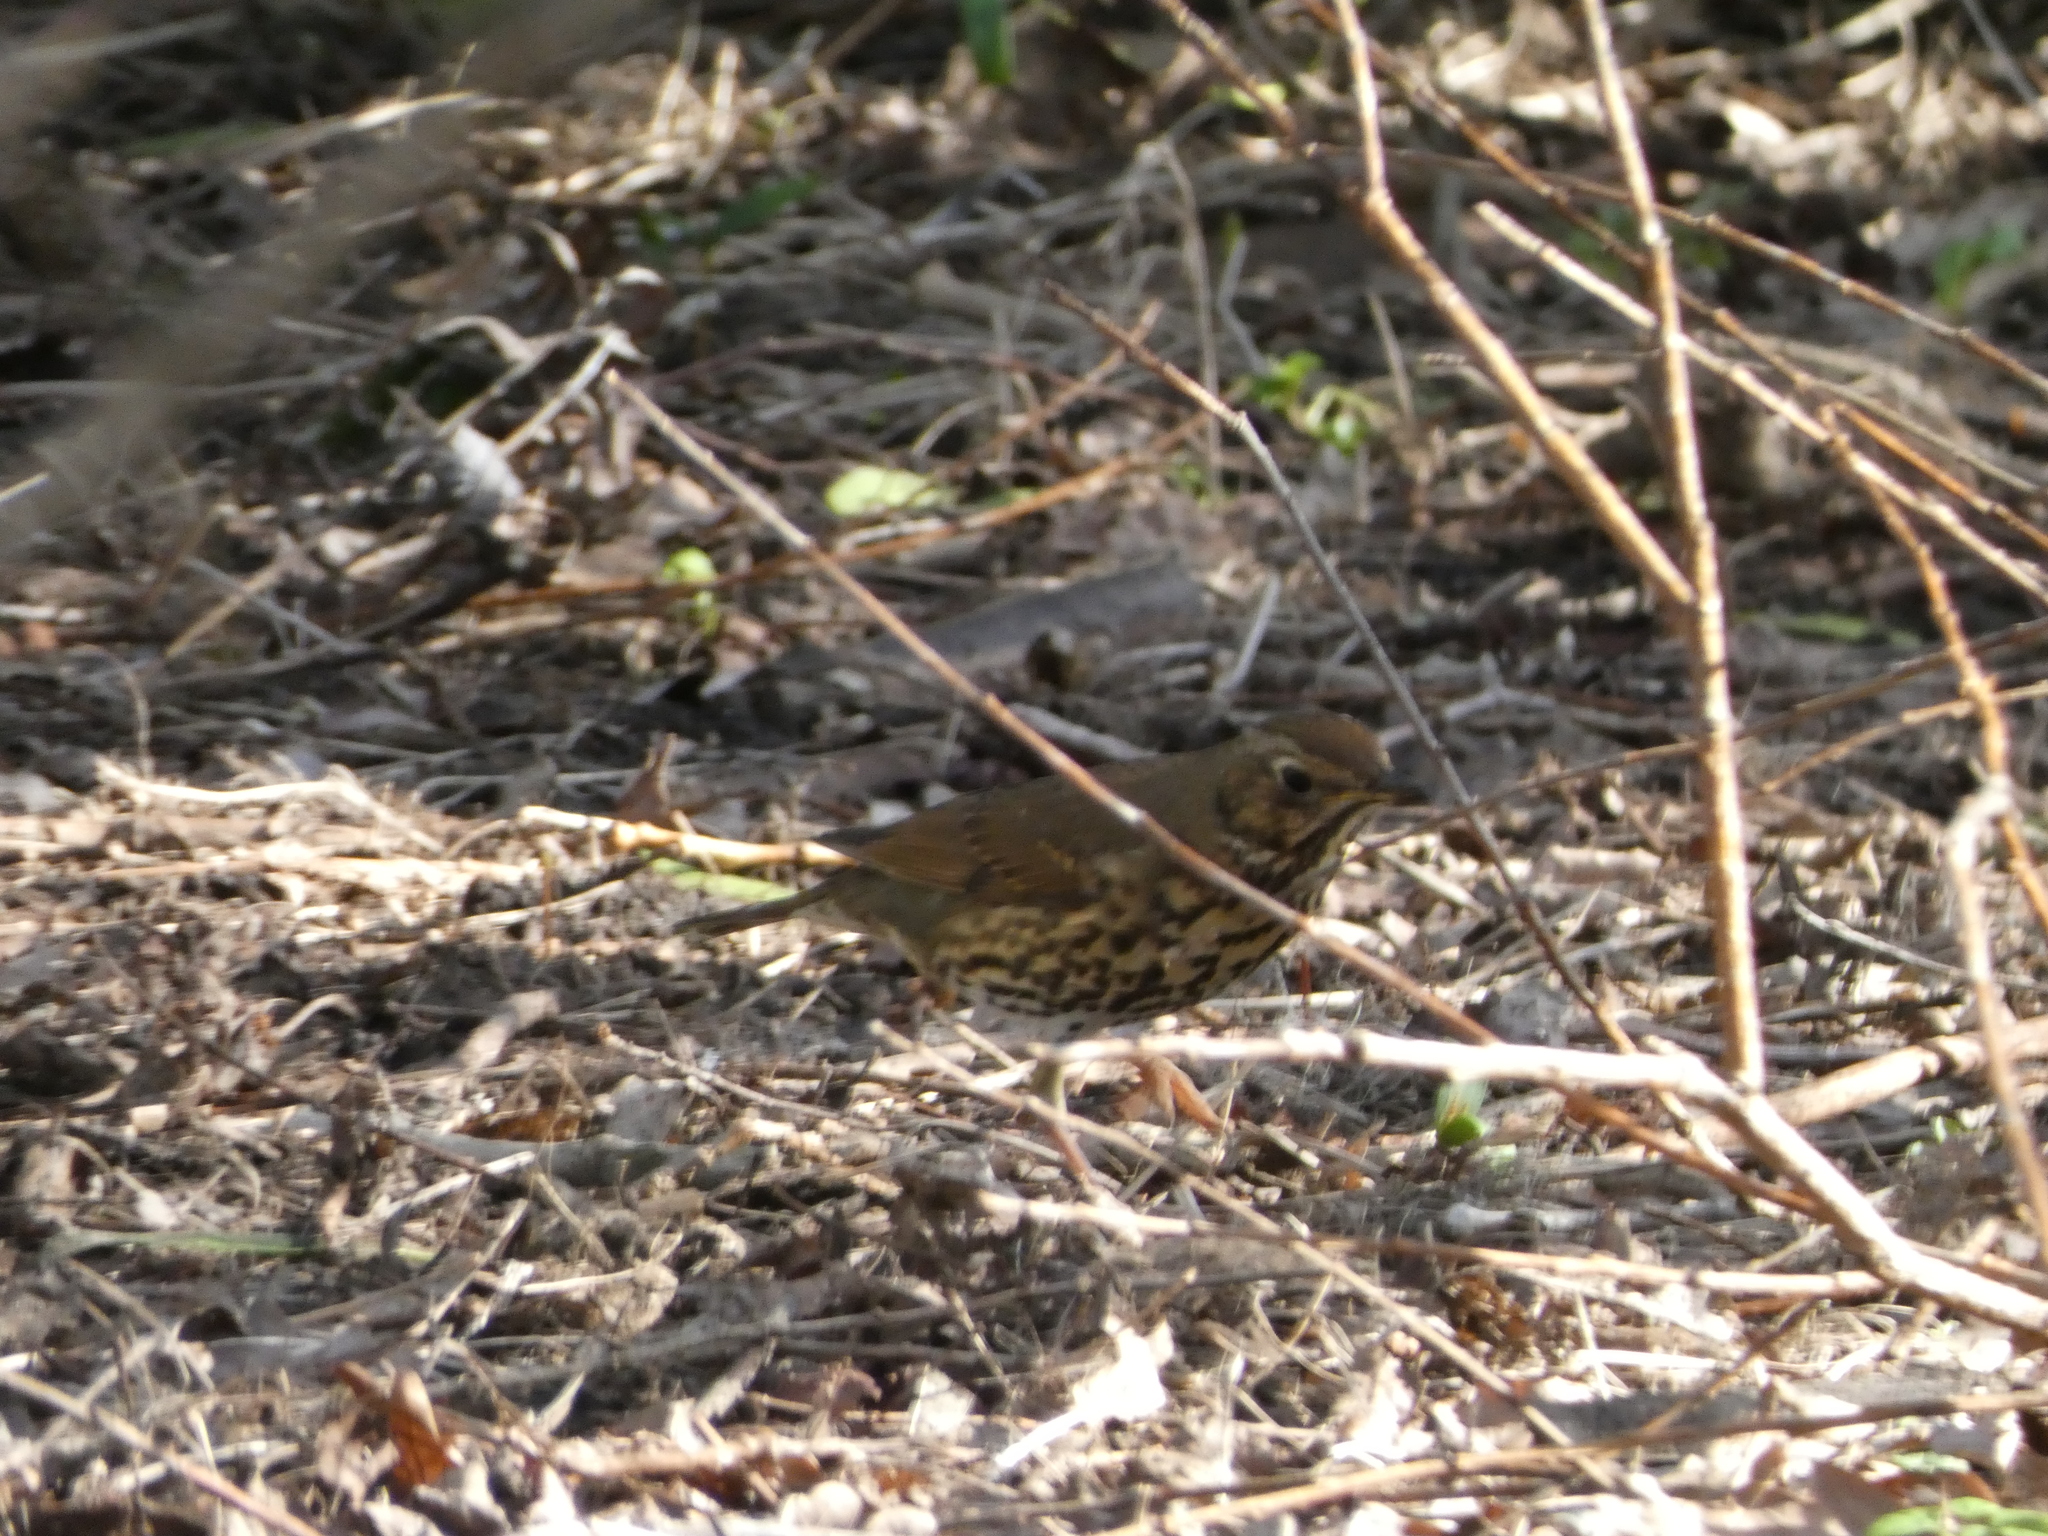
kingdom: Animalia
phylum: Chordata
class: Aves
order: Passeriformes
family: Turdidae
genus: Turdus
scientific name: Turdus philomelos
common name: Song thrush
